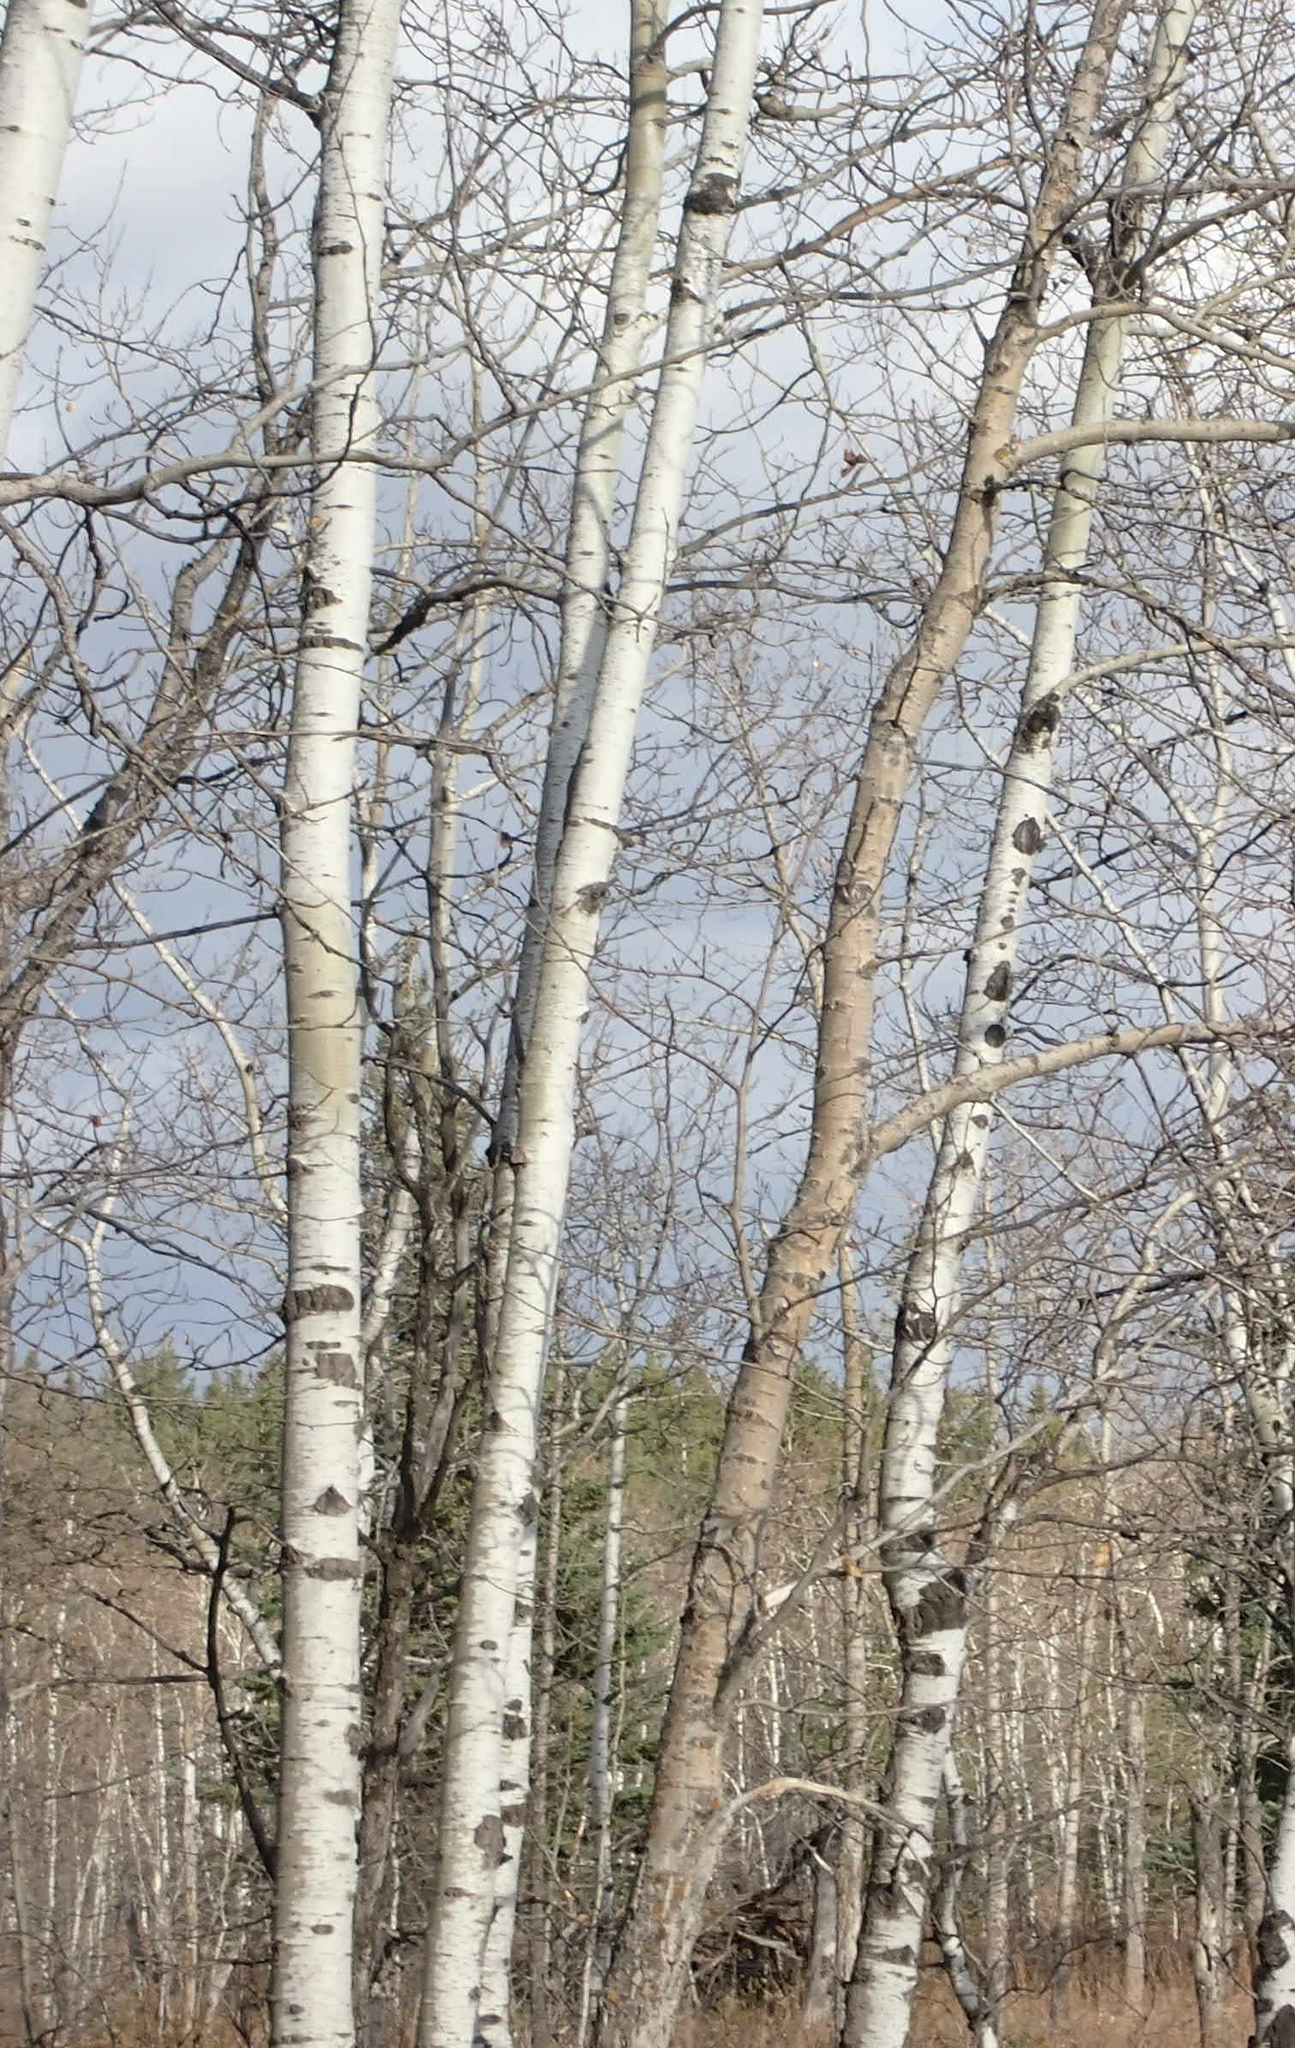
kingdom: Plantae
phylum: Tracheophyta
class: Magnoliopsida
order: Malpighiales
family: Salicaceae
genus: Populus
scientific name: Populus tremuloides
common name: Quaking aspen
